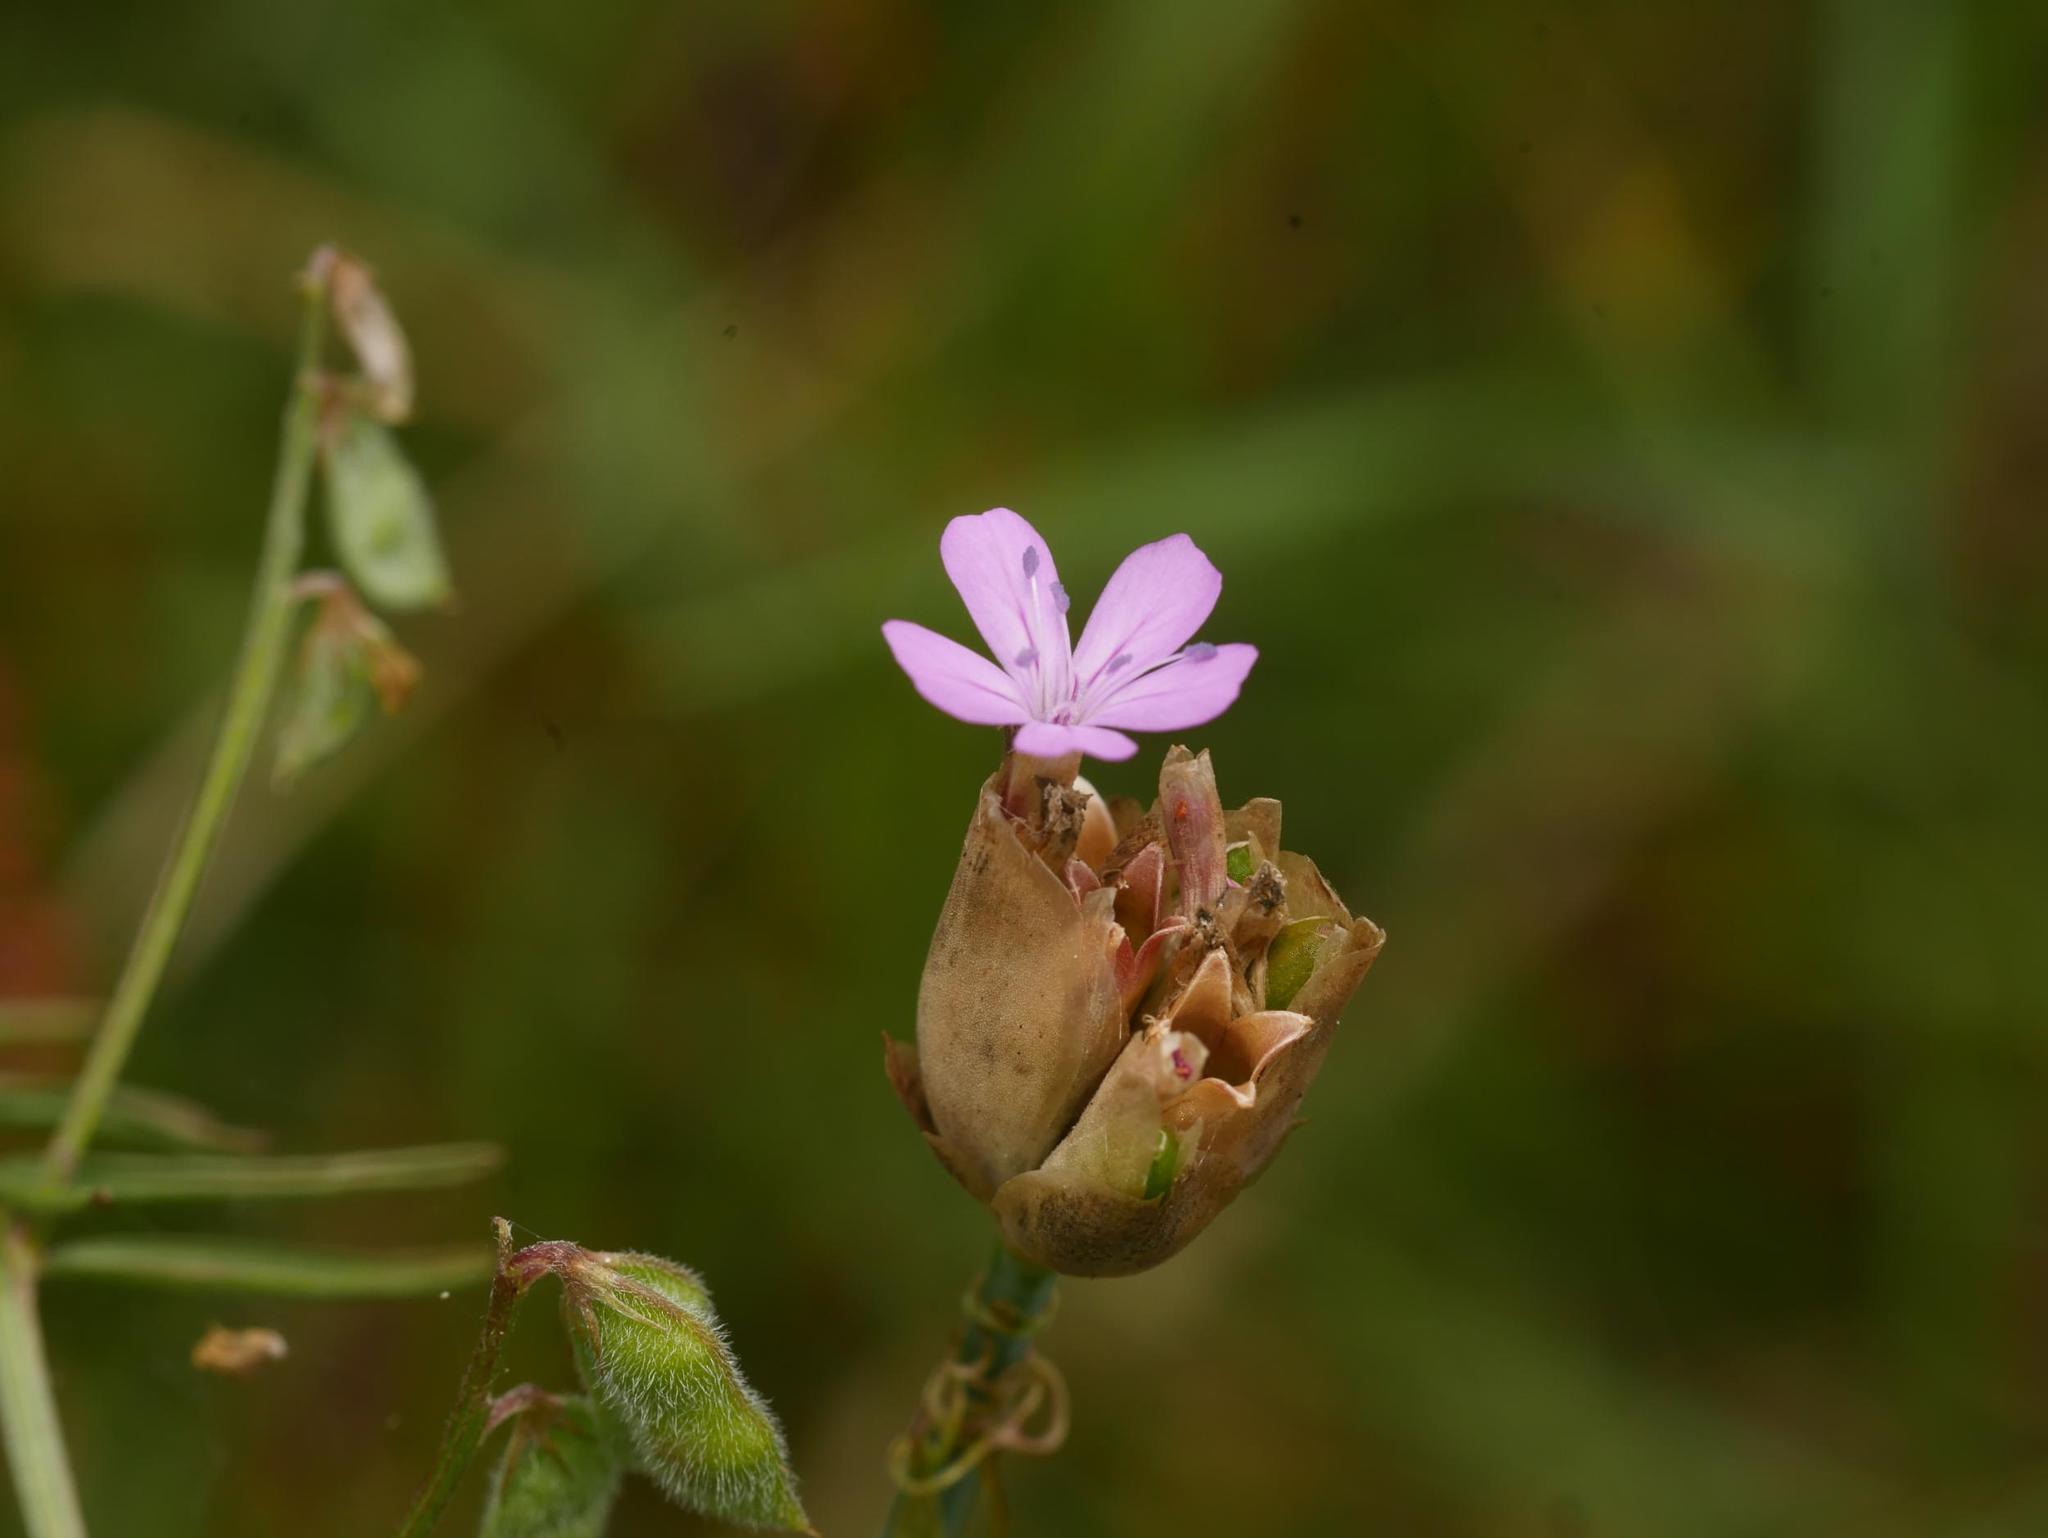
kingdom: Plantae
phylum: Tracheophyta
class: Magnoliopsida
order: Caryophyllales
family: Caryophyllaceae
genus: Petrorhagia
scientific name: Petrorhagia prolifera
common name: Proliferous pink
